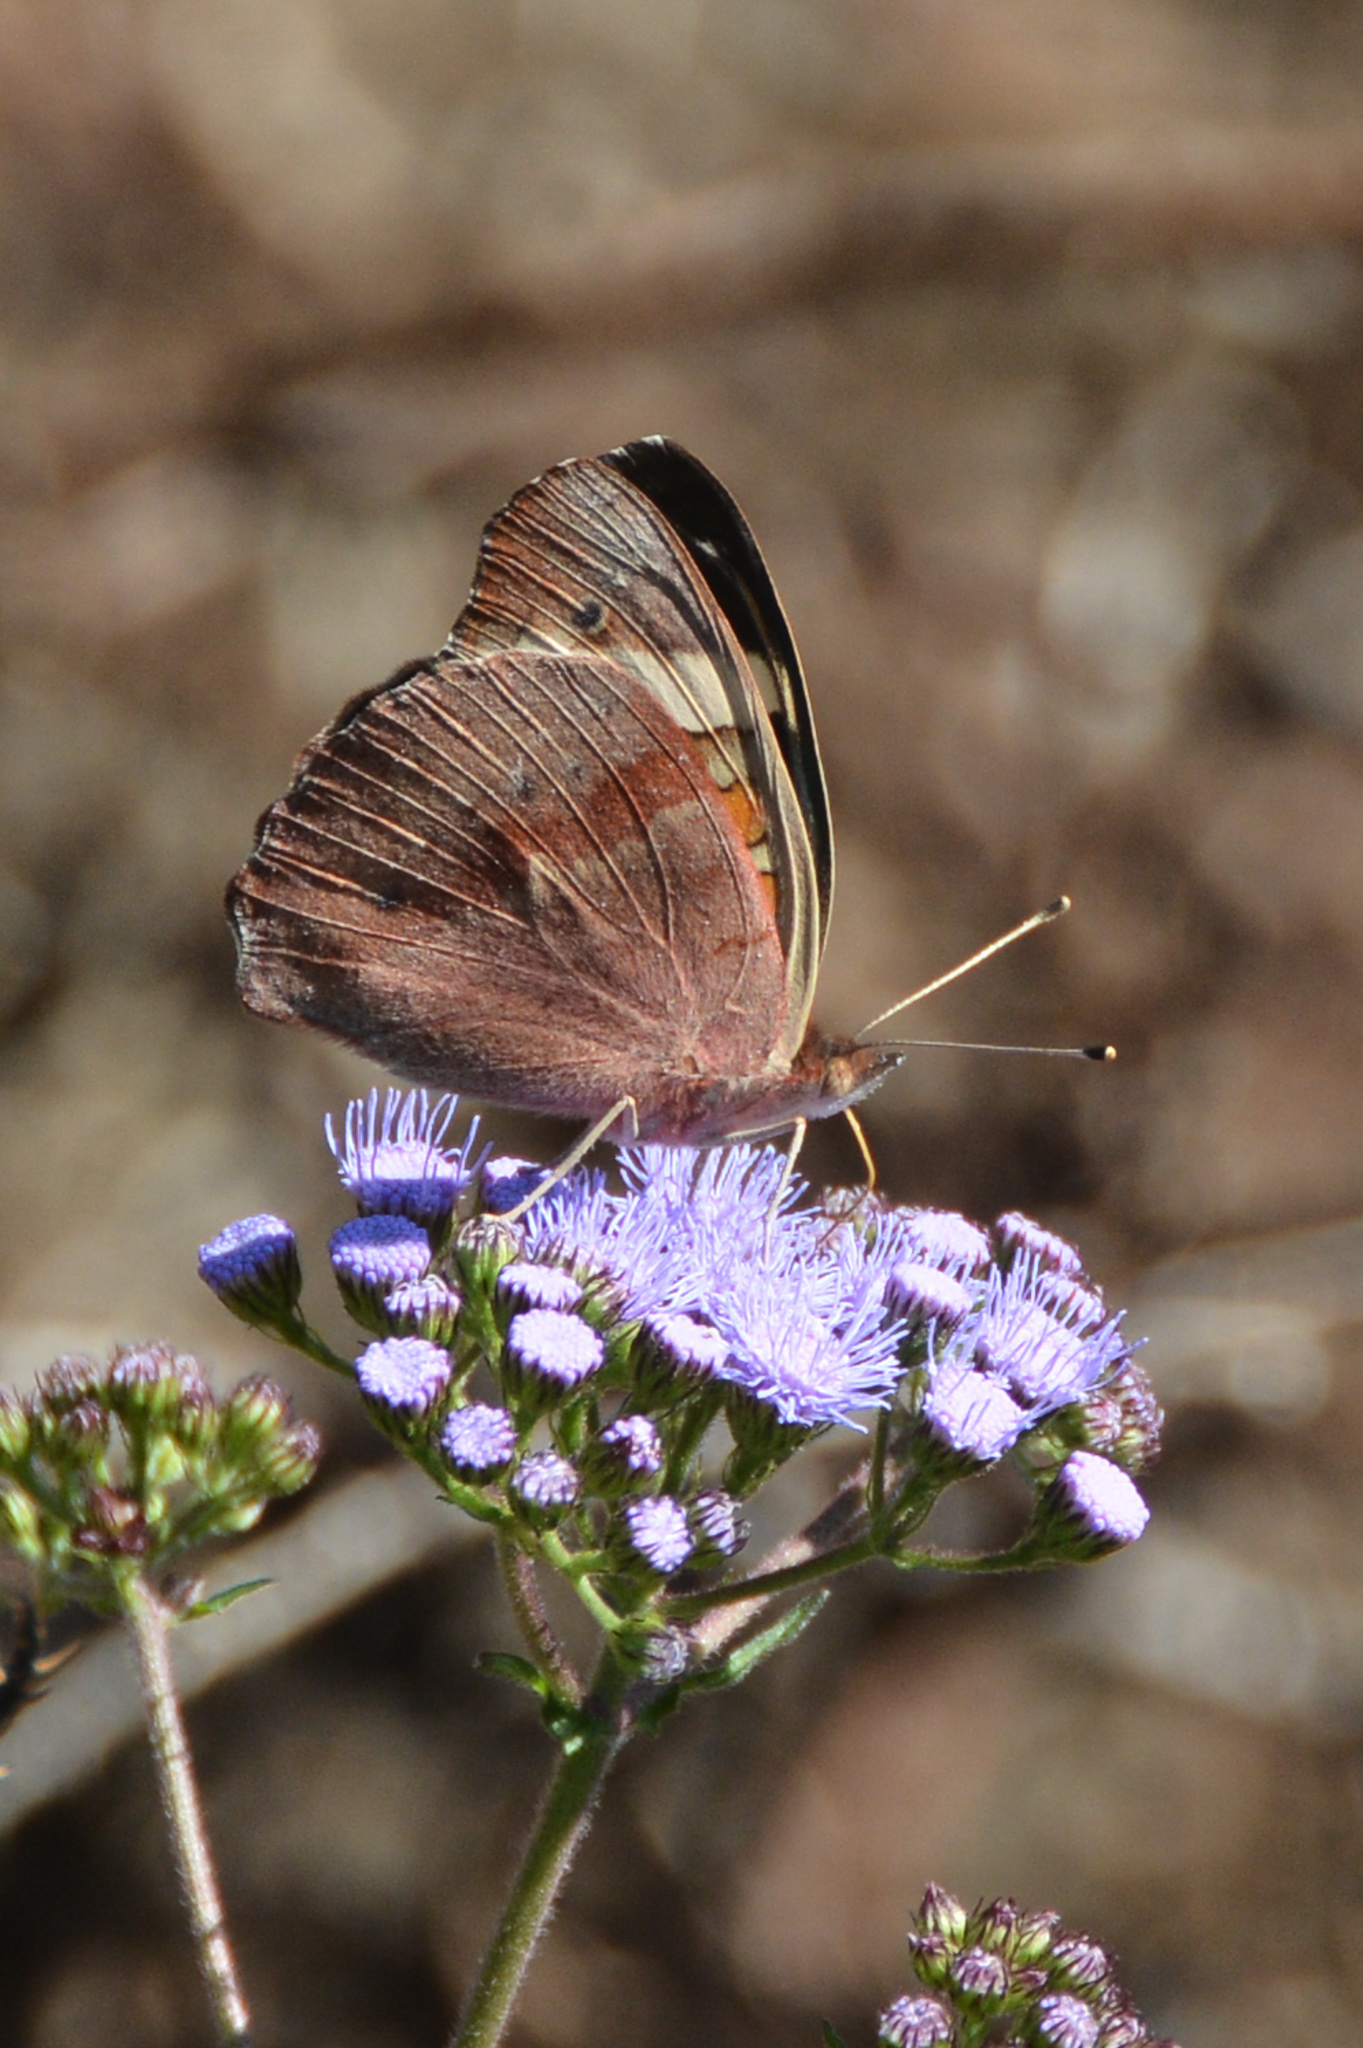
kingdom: Animalia
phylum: Arthropoda
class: Insecta
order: Lepidoptera
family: Nymphalidae
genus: Junonia
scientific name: Junonia coenia
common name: Common buckeye
